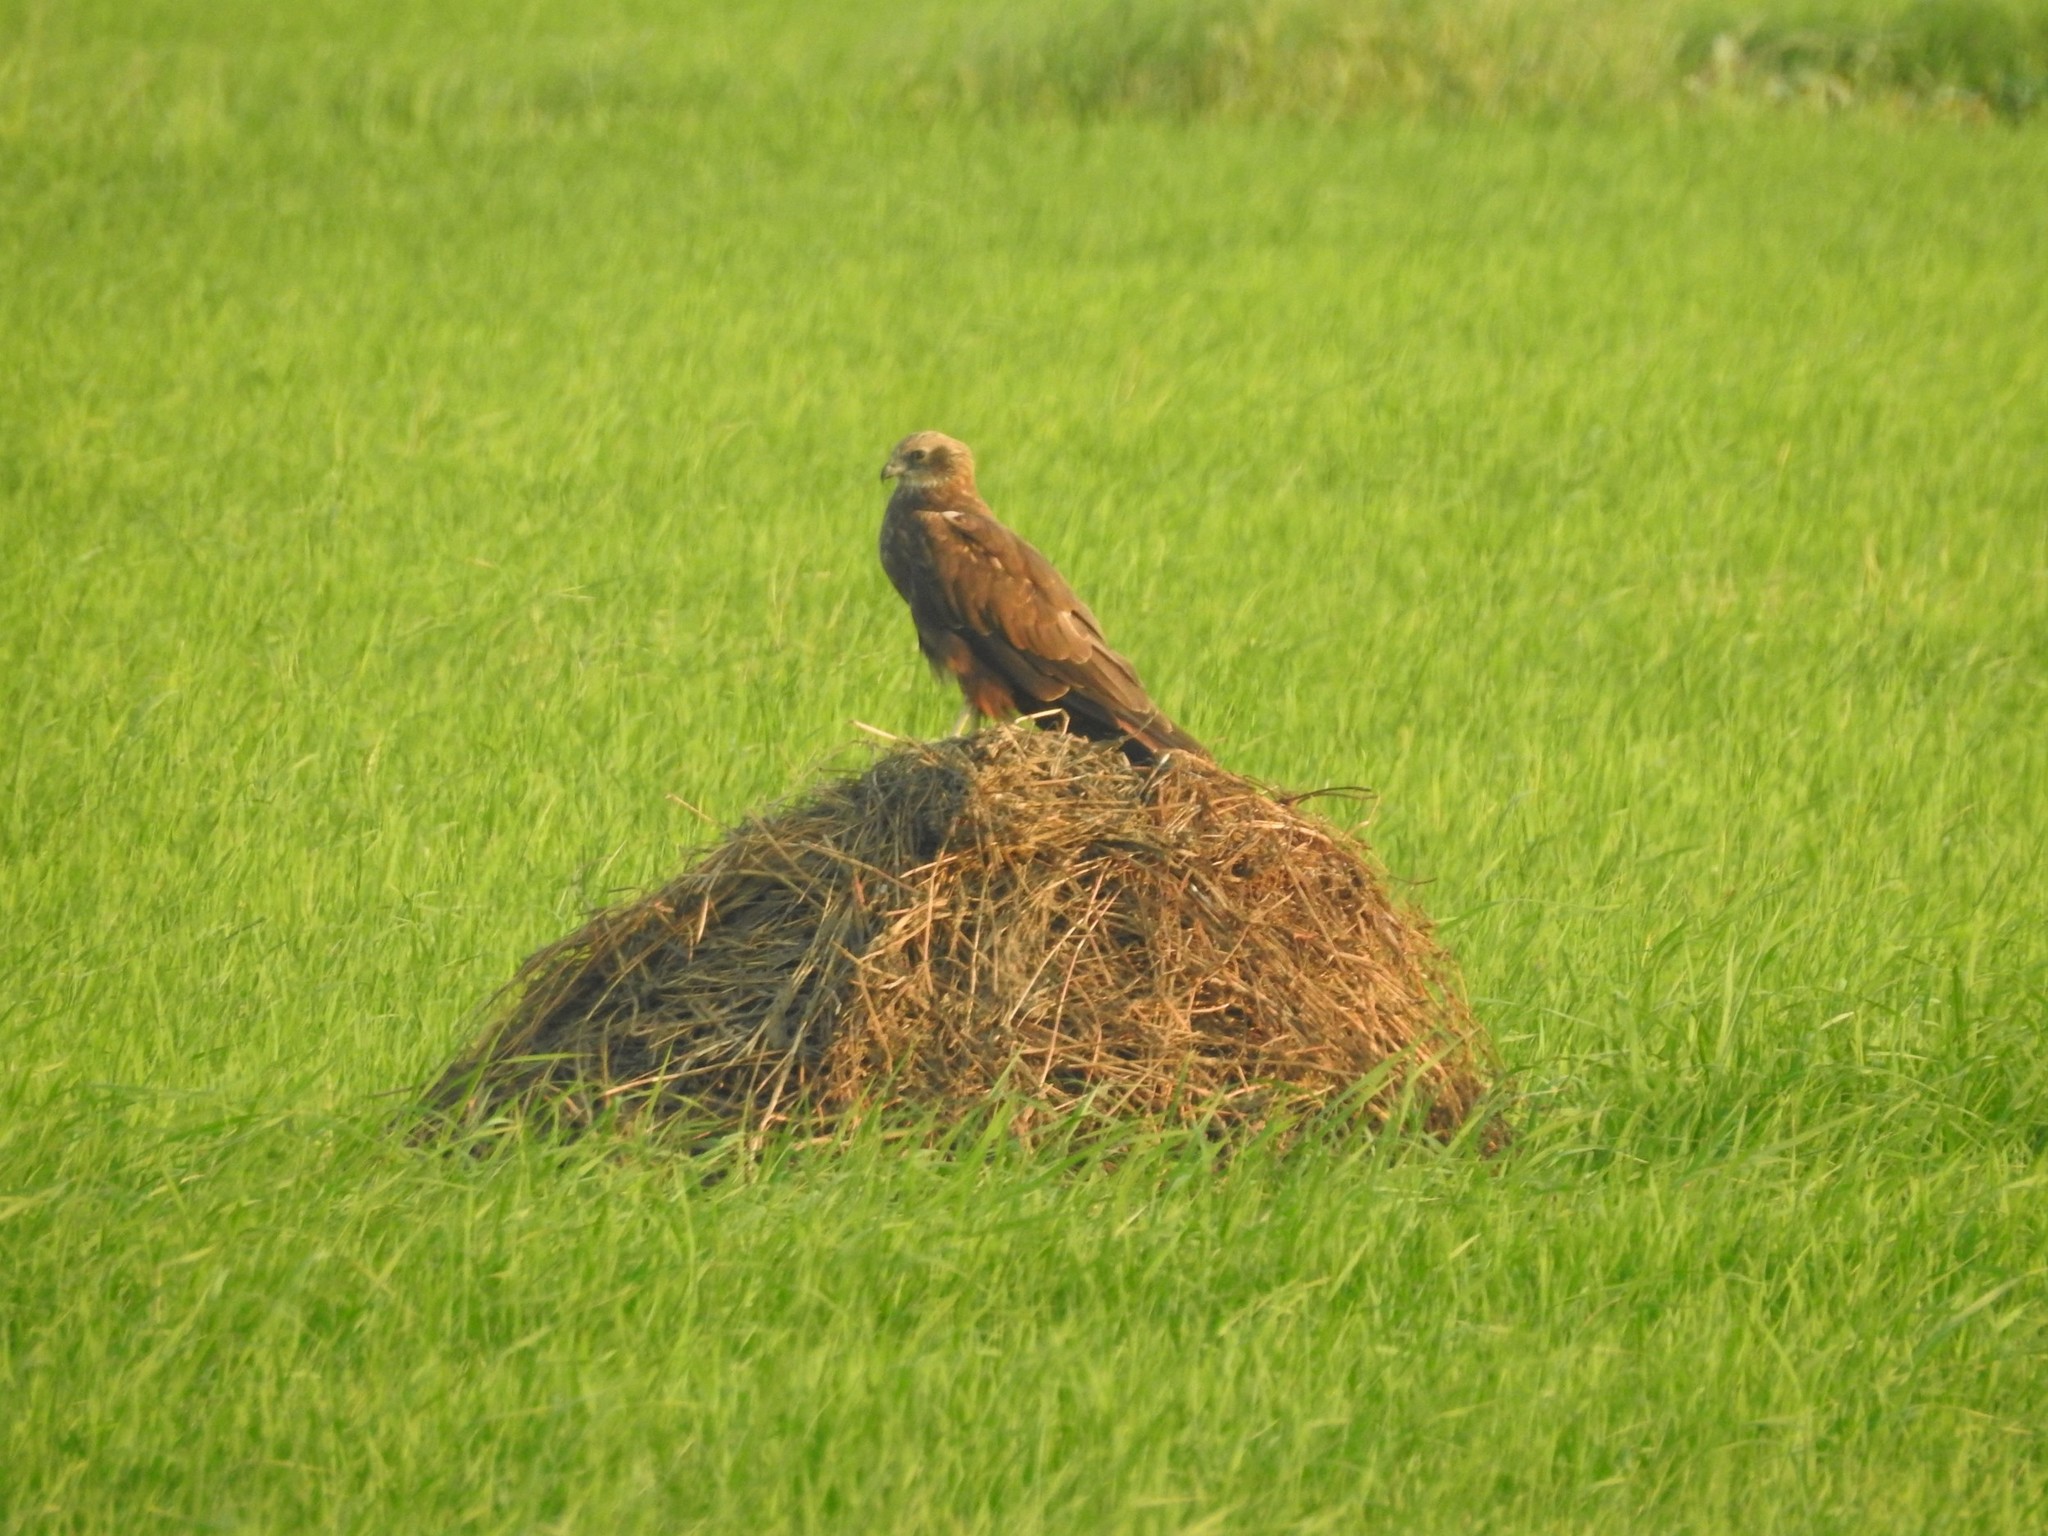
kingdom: Animalia
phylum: Chordata
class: Aves
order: Accipitriformes
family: Accipitridae
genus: Circus
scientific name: Circus aeruginosus
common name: Western marsh harrier
